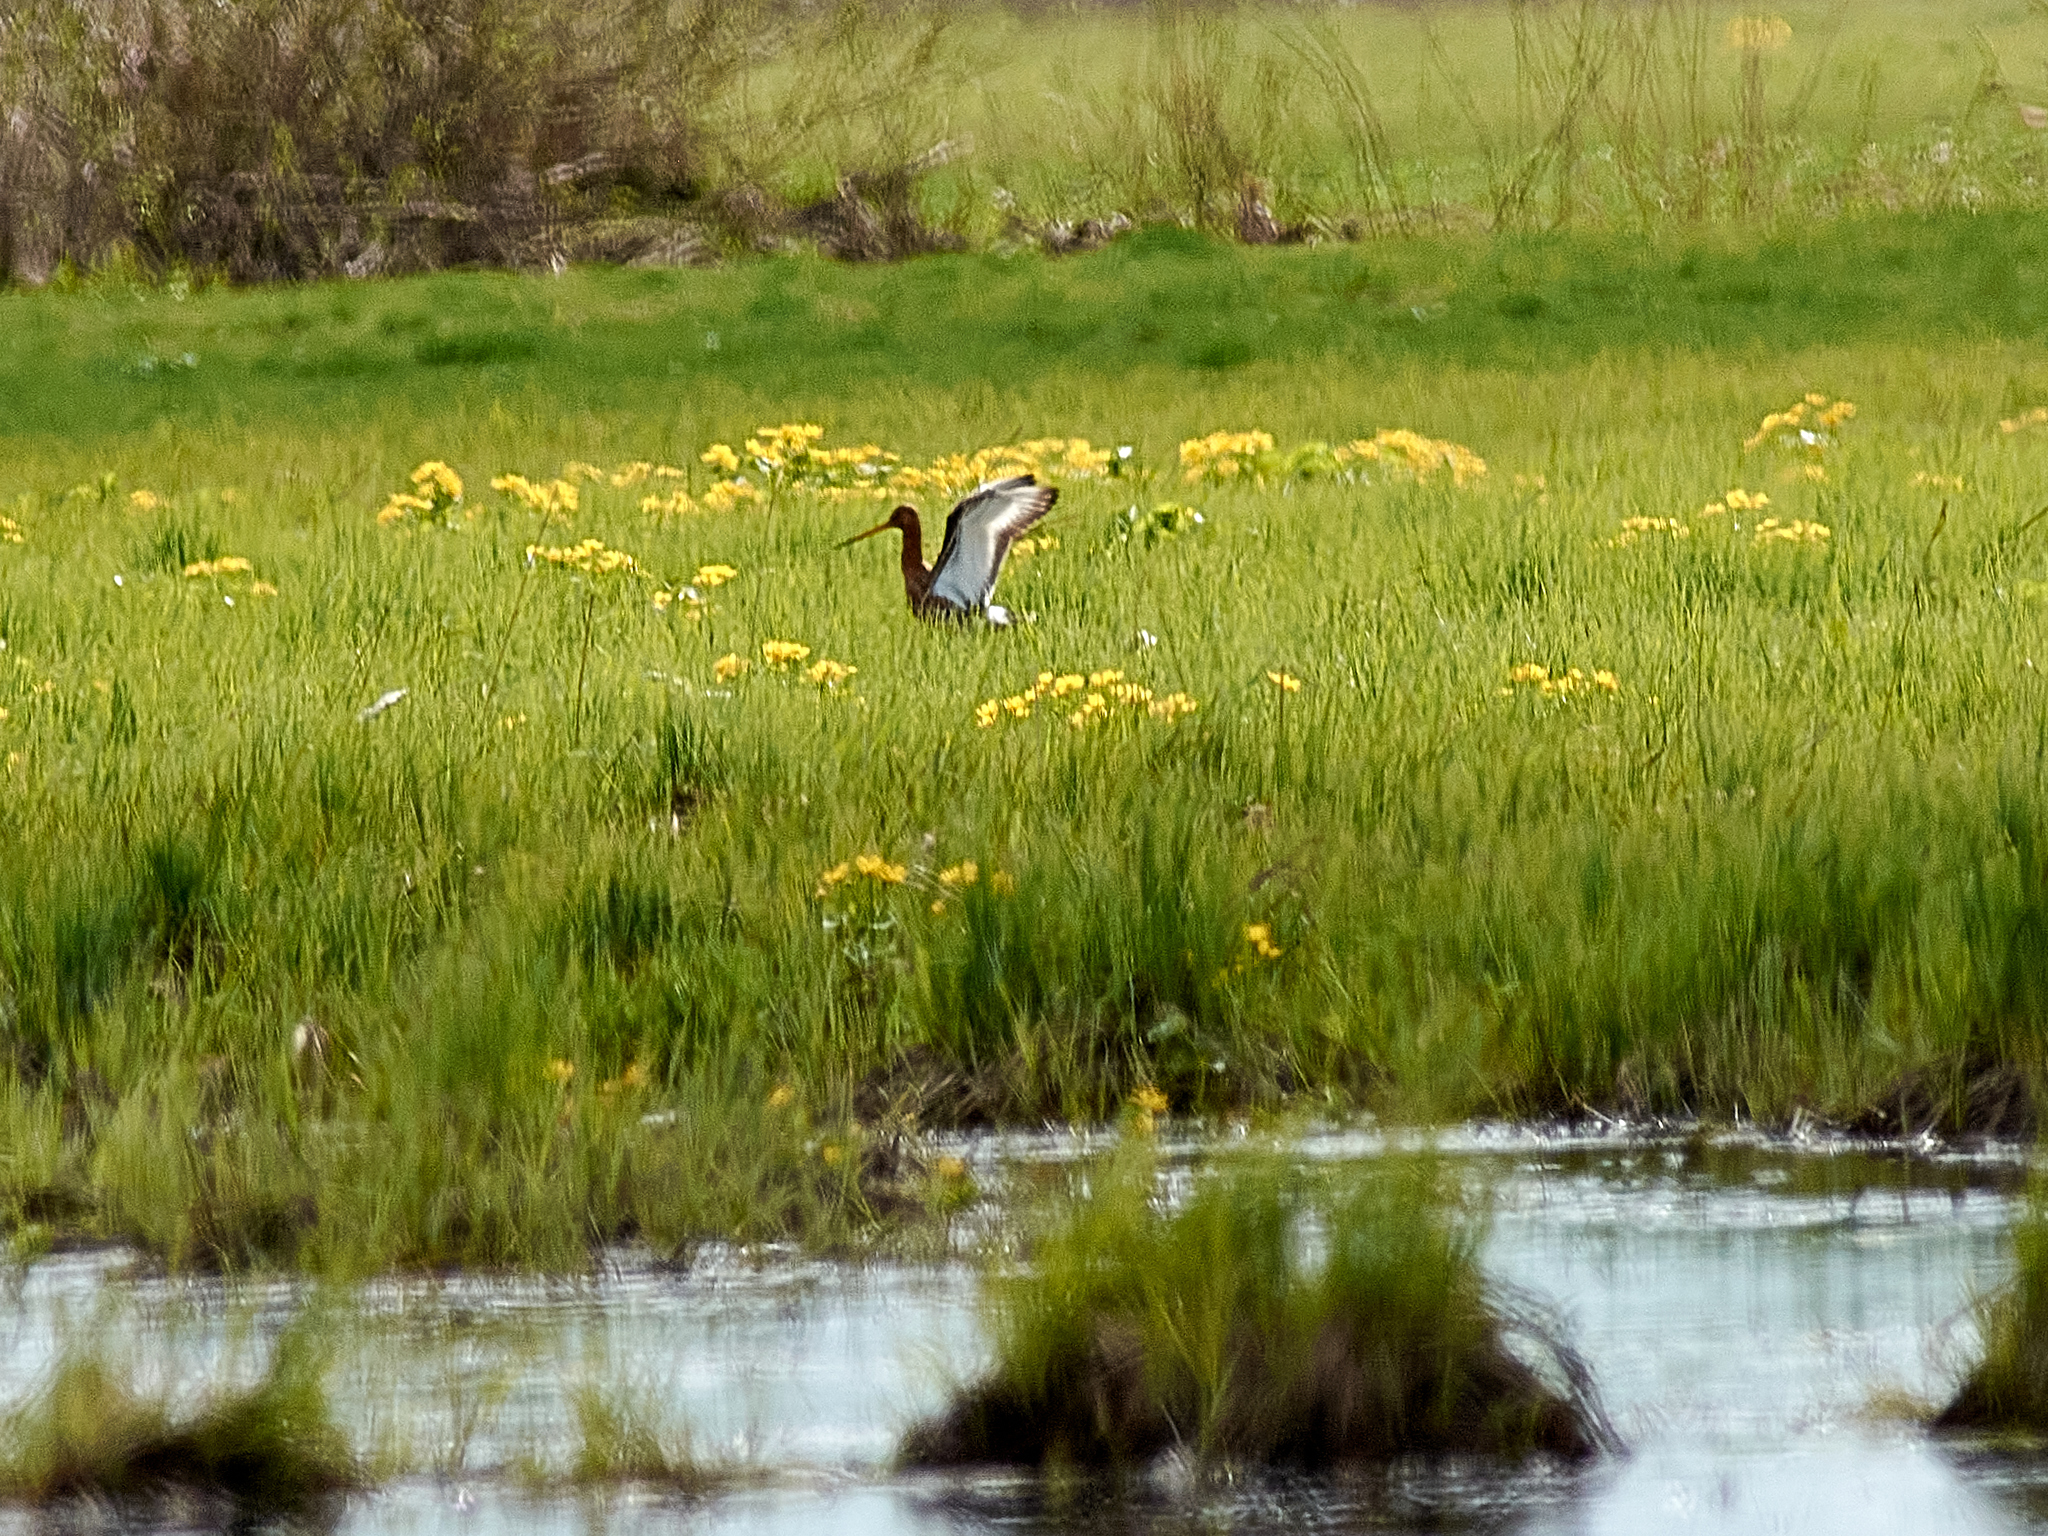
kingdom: Animalia
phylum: Chordata
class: Aves
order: Charadriiformes
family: Scolopacidae
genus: Limosa
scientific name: Limosa limosa
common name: Black-tailed godwit
